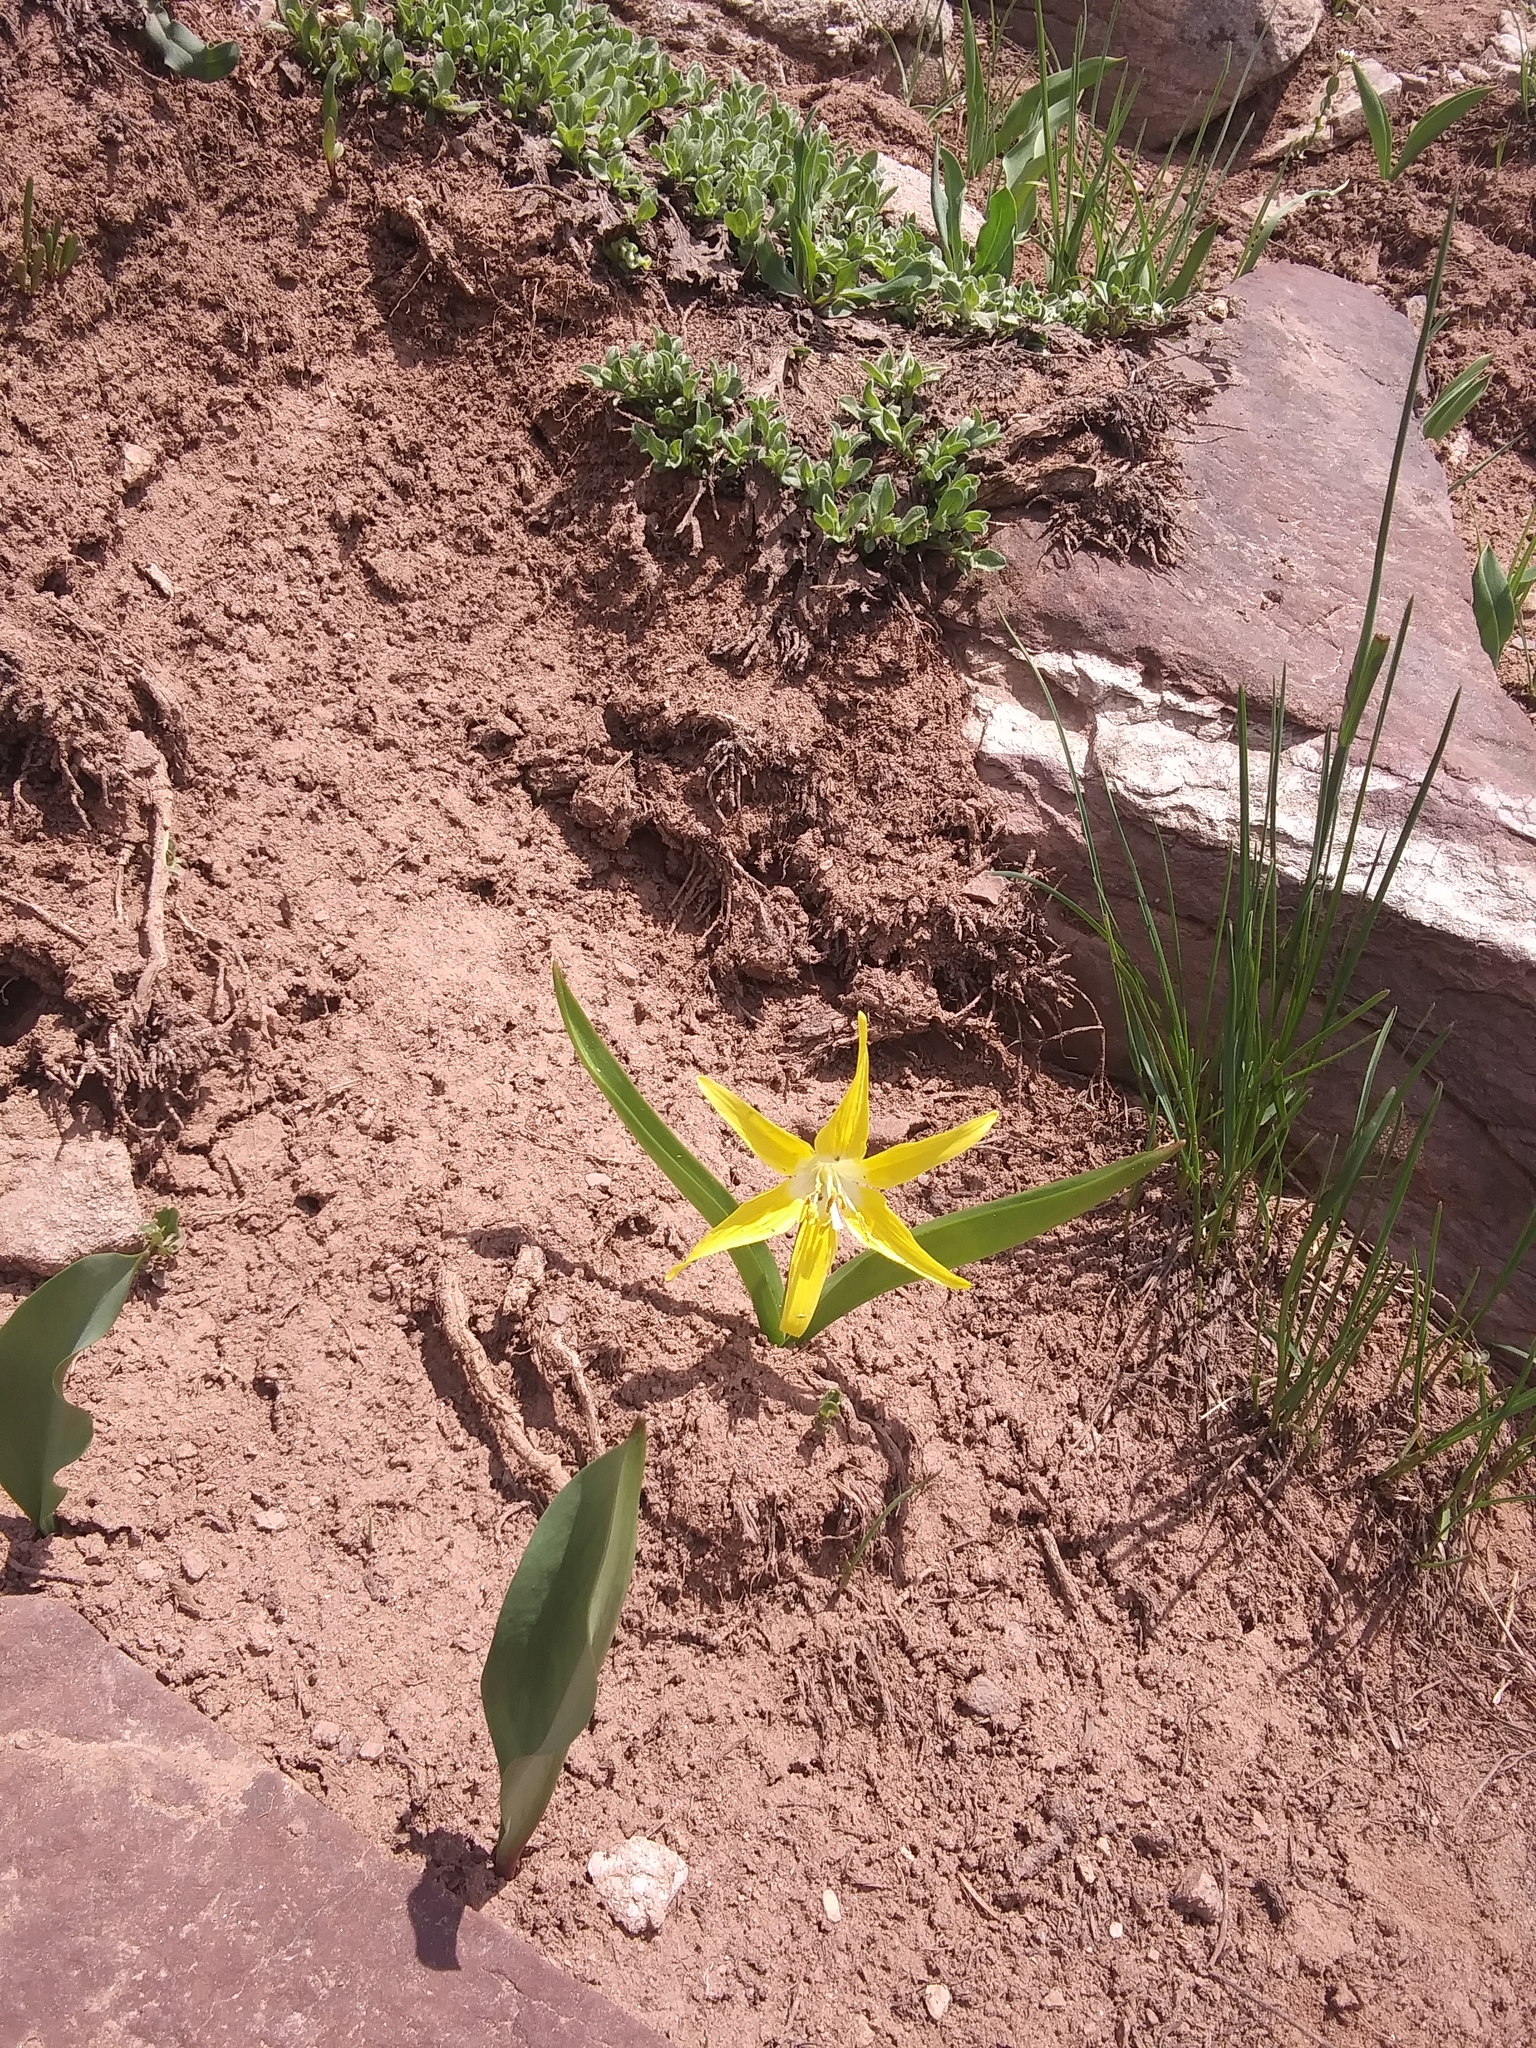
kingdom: Plantae
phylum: Tracheophyta
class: Liliopsida
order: Liliales
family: Liliaceae
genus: Erythronium
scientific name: Erythronium grandiflorum
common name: Avalanche-lily
